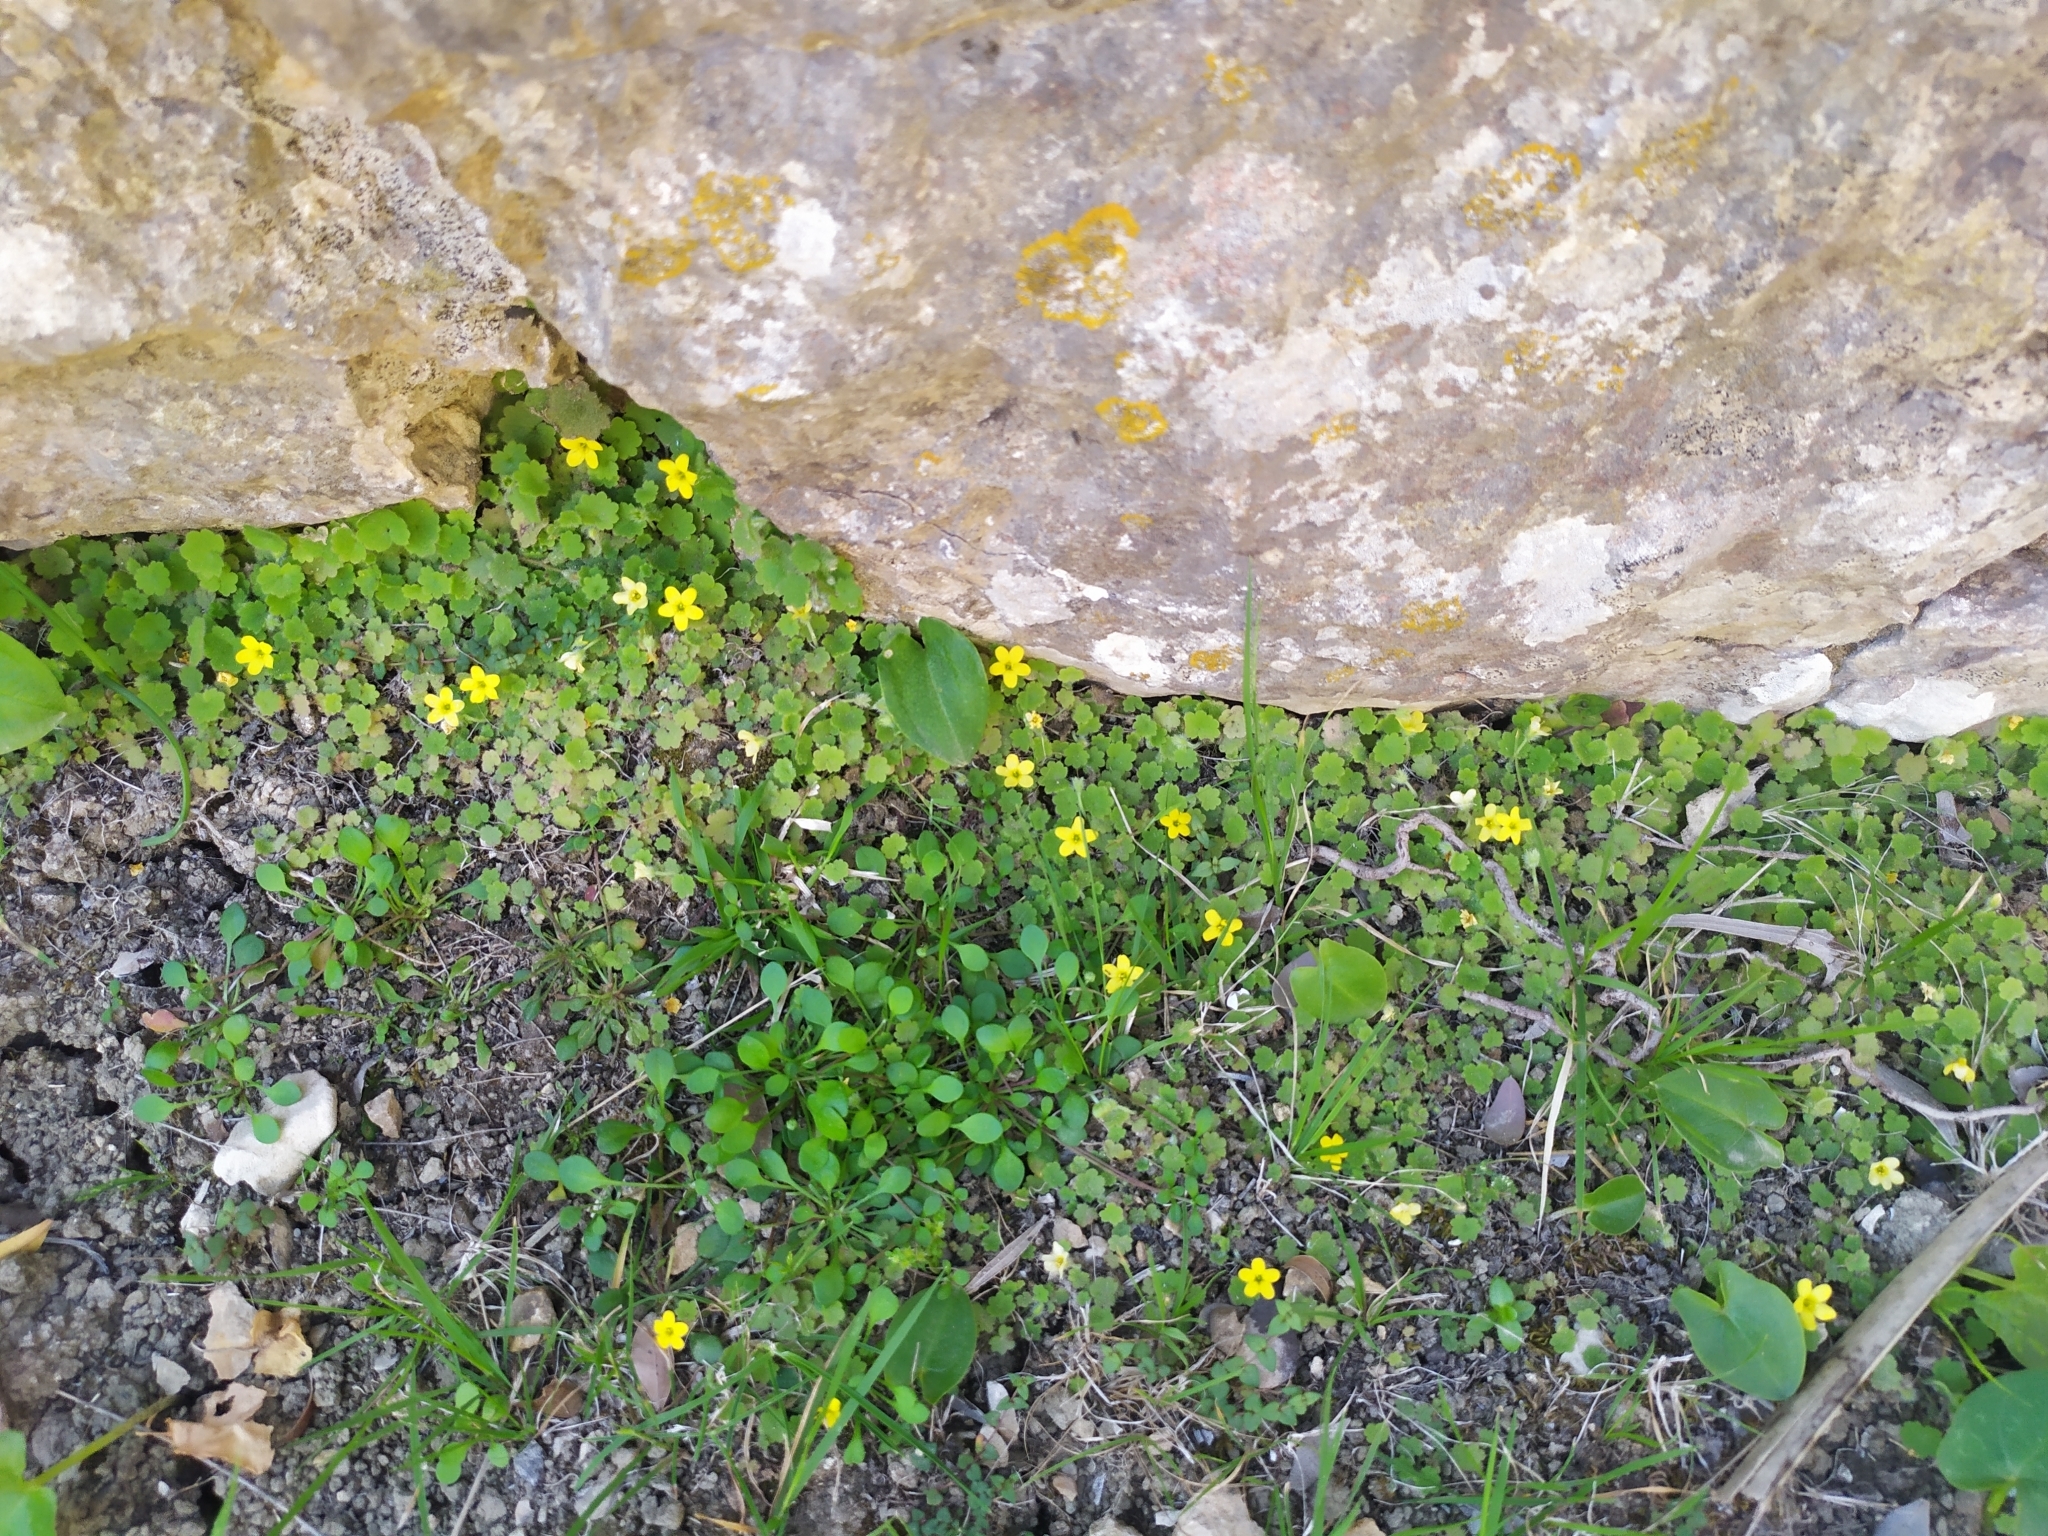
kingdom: Plantae
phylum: Tracheophyta
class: Magnoliopsida
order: Lamiales
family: Plantaginaceae
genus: Sibthorpia
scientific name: Sibthorpia africana
